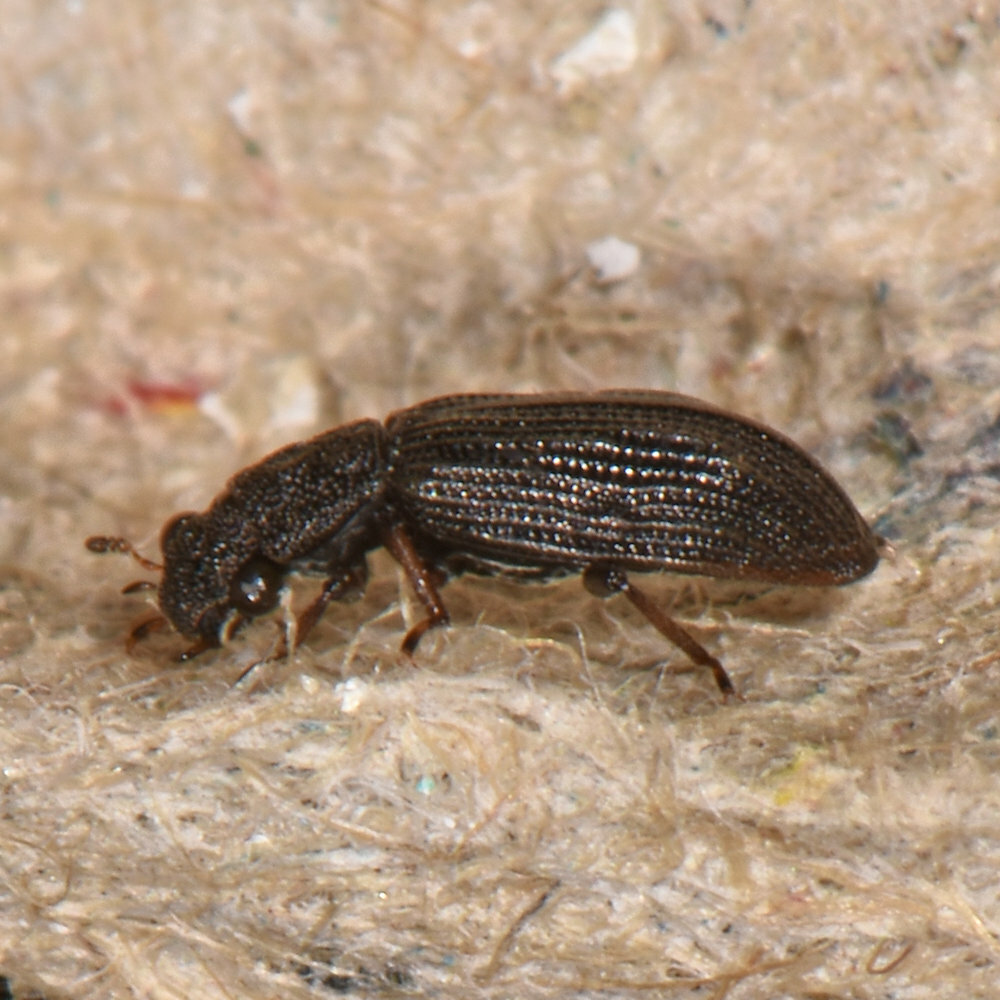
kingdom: Animalia
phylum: Arthropoda
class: Insecta
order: Coleoptera
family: Hydrochidae
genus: Hydrochus
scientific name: Hydrochus
